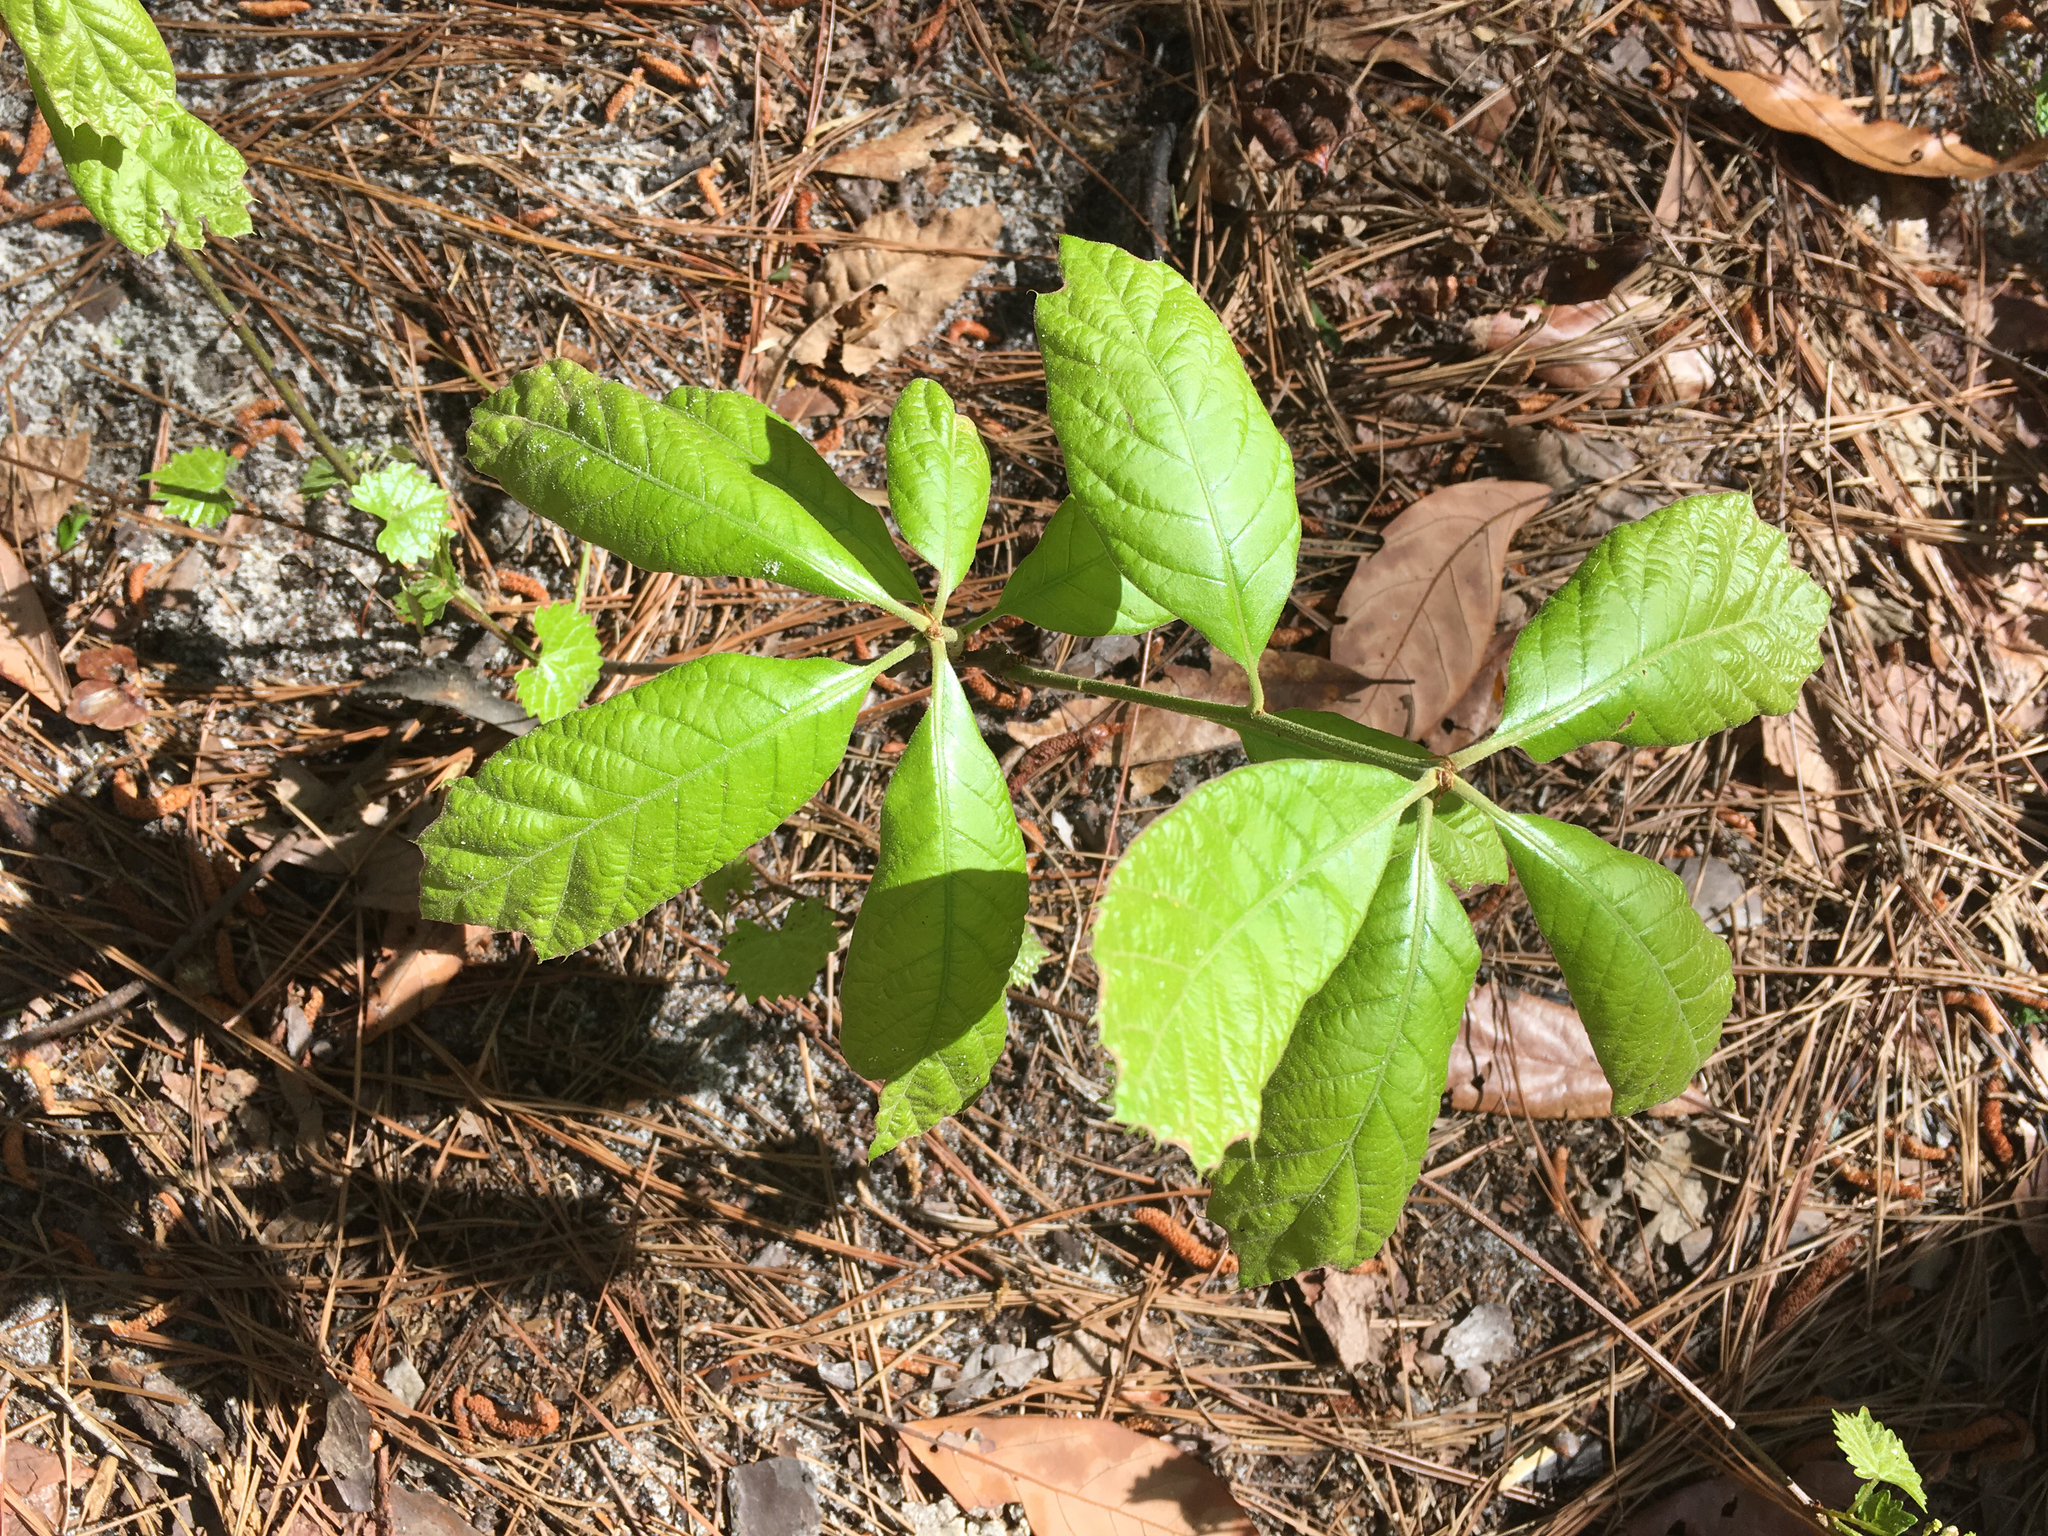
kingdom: Plantae
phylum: Tracheophyta
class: Magnoliopsida
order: Fagales
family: Fagaceae
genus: Quercus
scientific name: Quercus falcata
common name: Southern red oak
